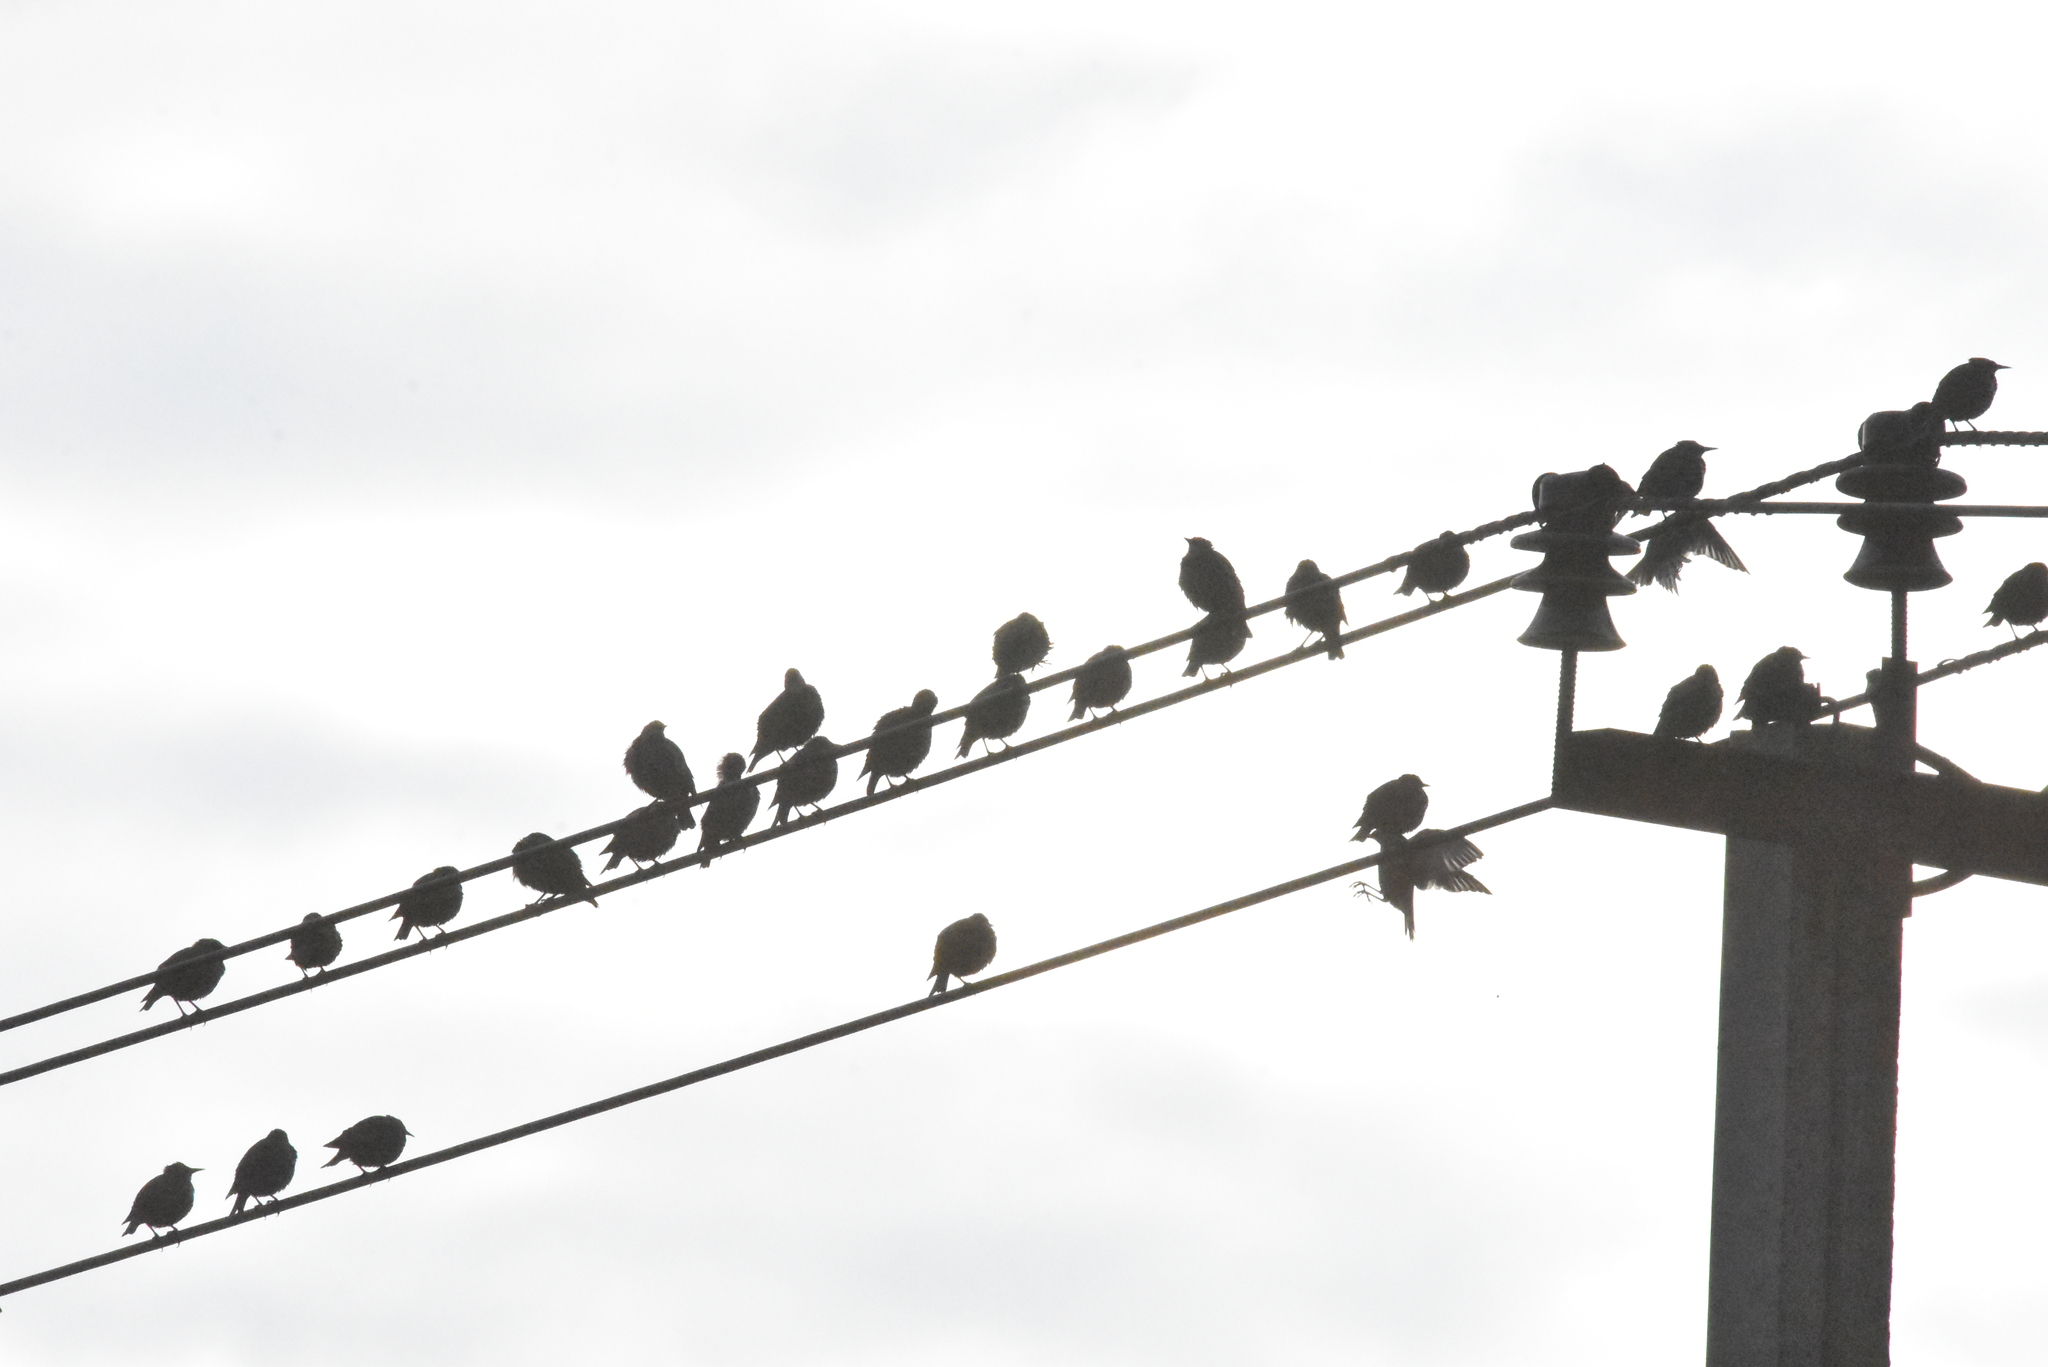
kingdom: Animalia
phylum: Chordata
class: Aves
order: Passeriformes
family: Sturnidae
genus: Sturnus
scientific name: Sturnus vulgaris
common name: Common starling
